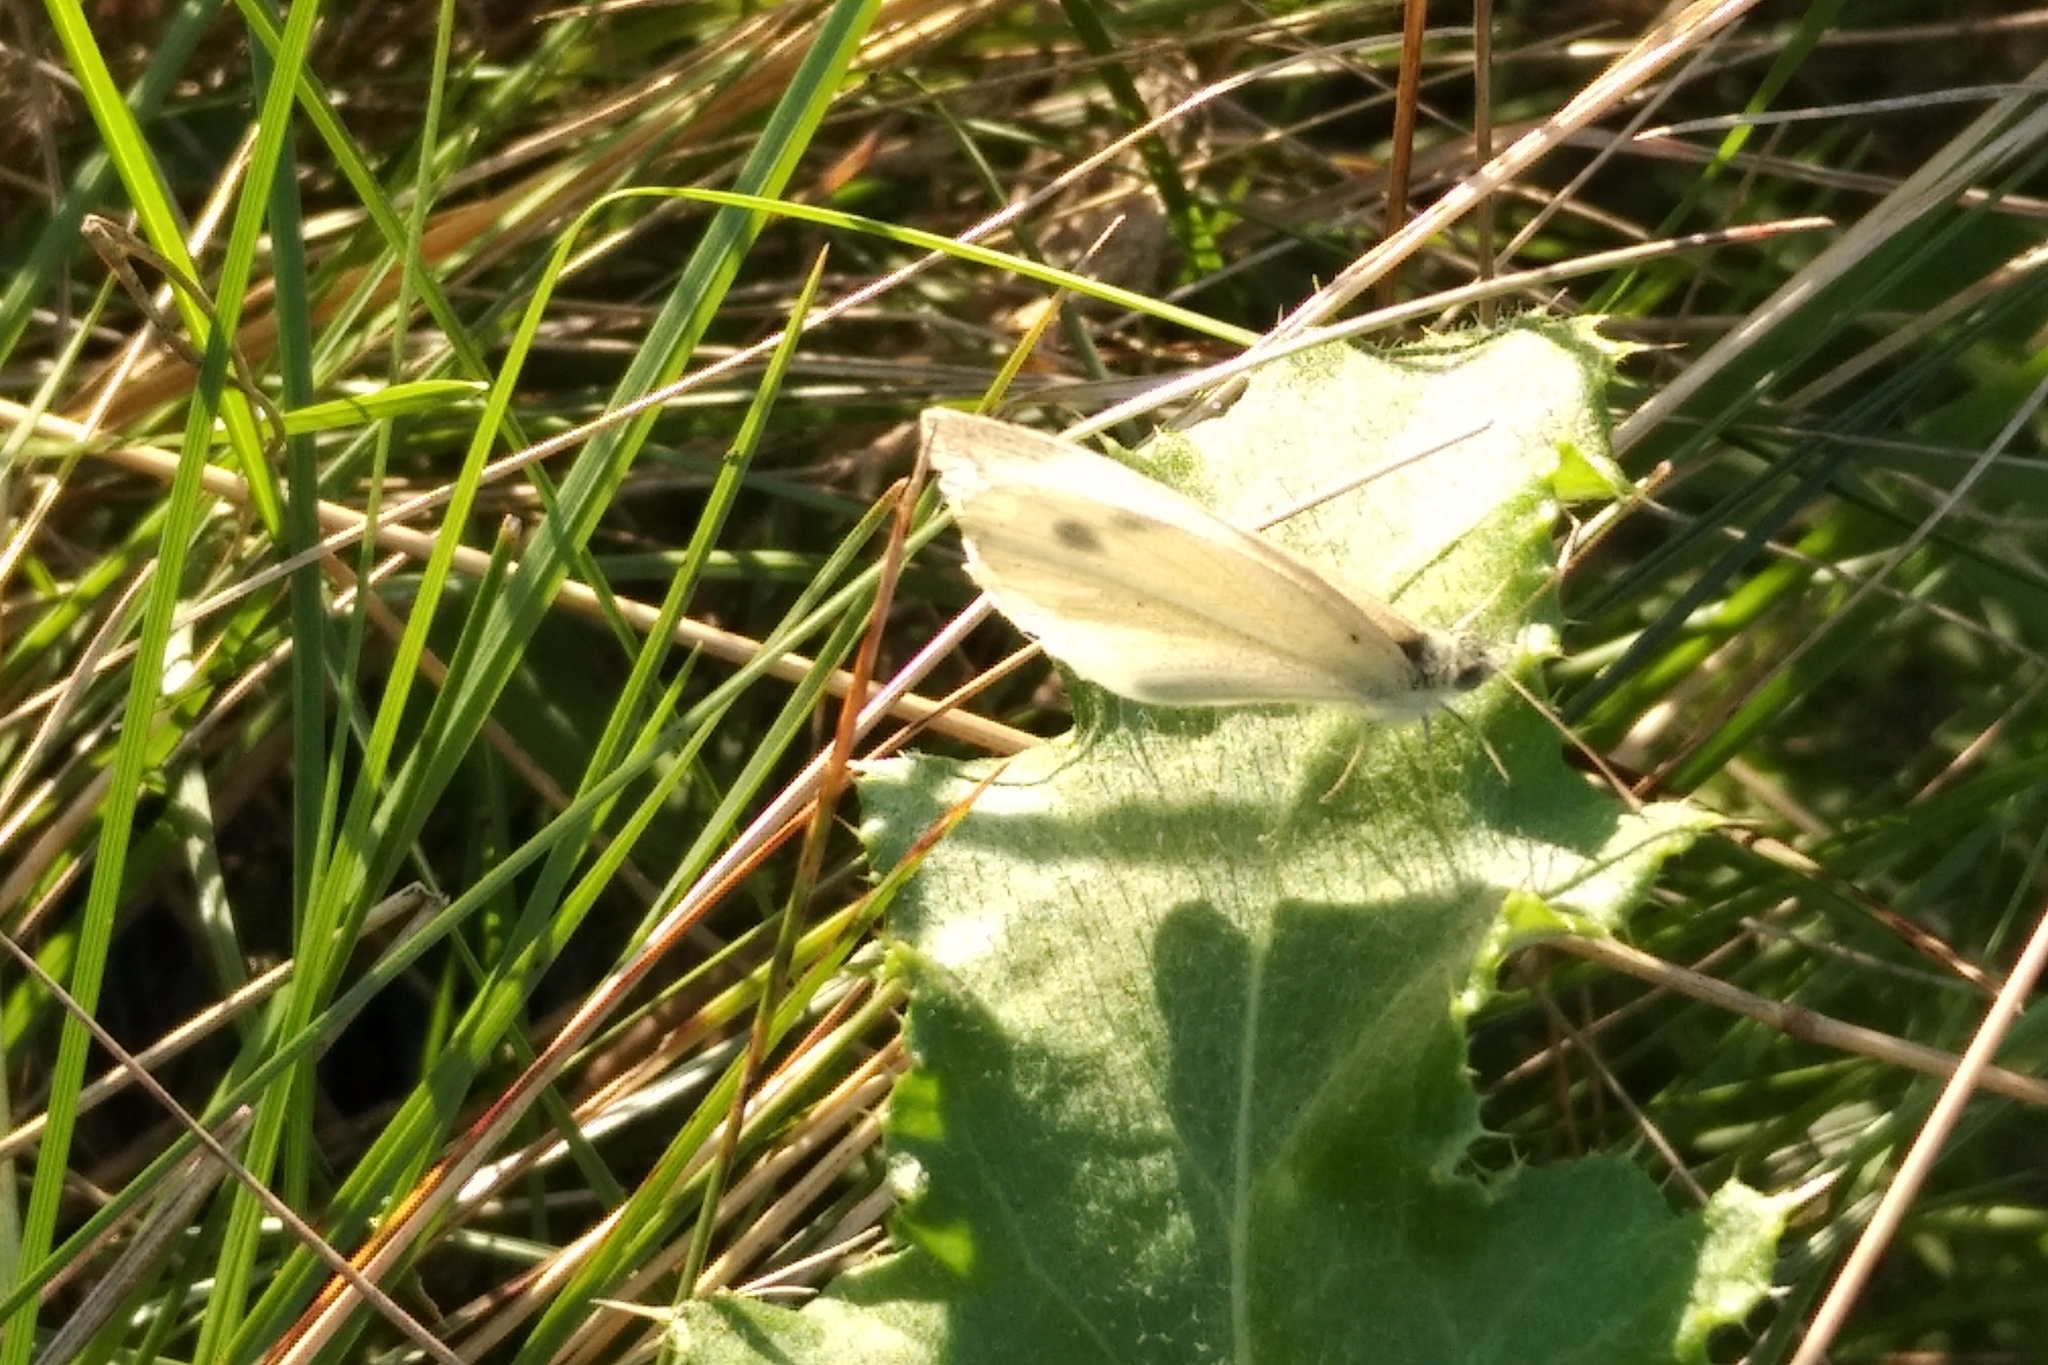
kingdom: Animalia
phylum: Arthropoda
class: Insecta
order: Lepidoptera
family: Pieridae
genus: Pieris
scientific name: Pieris rapae
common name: Small white
